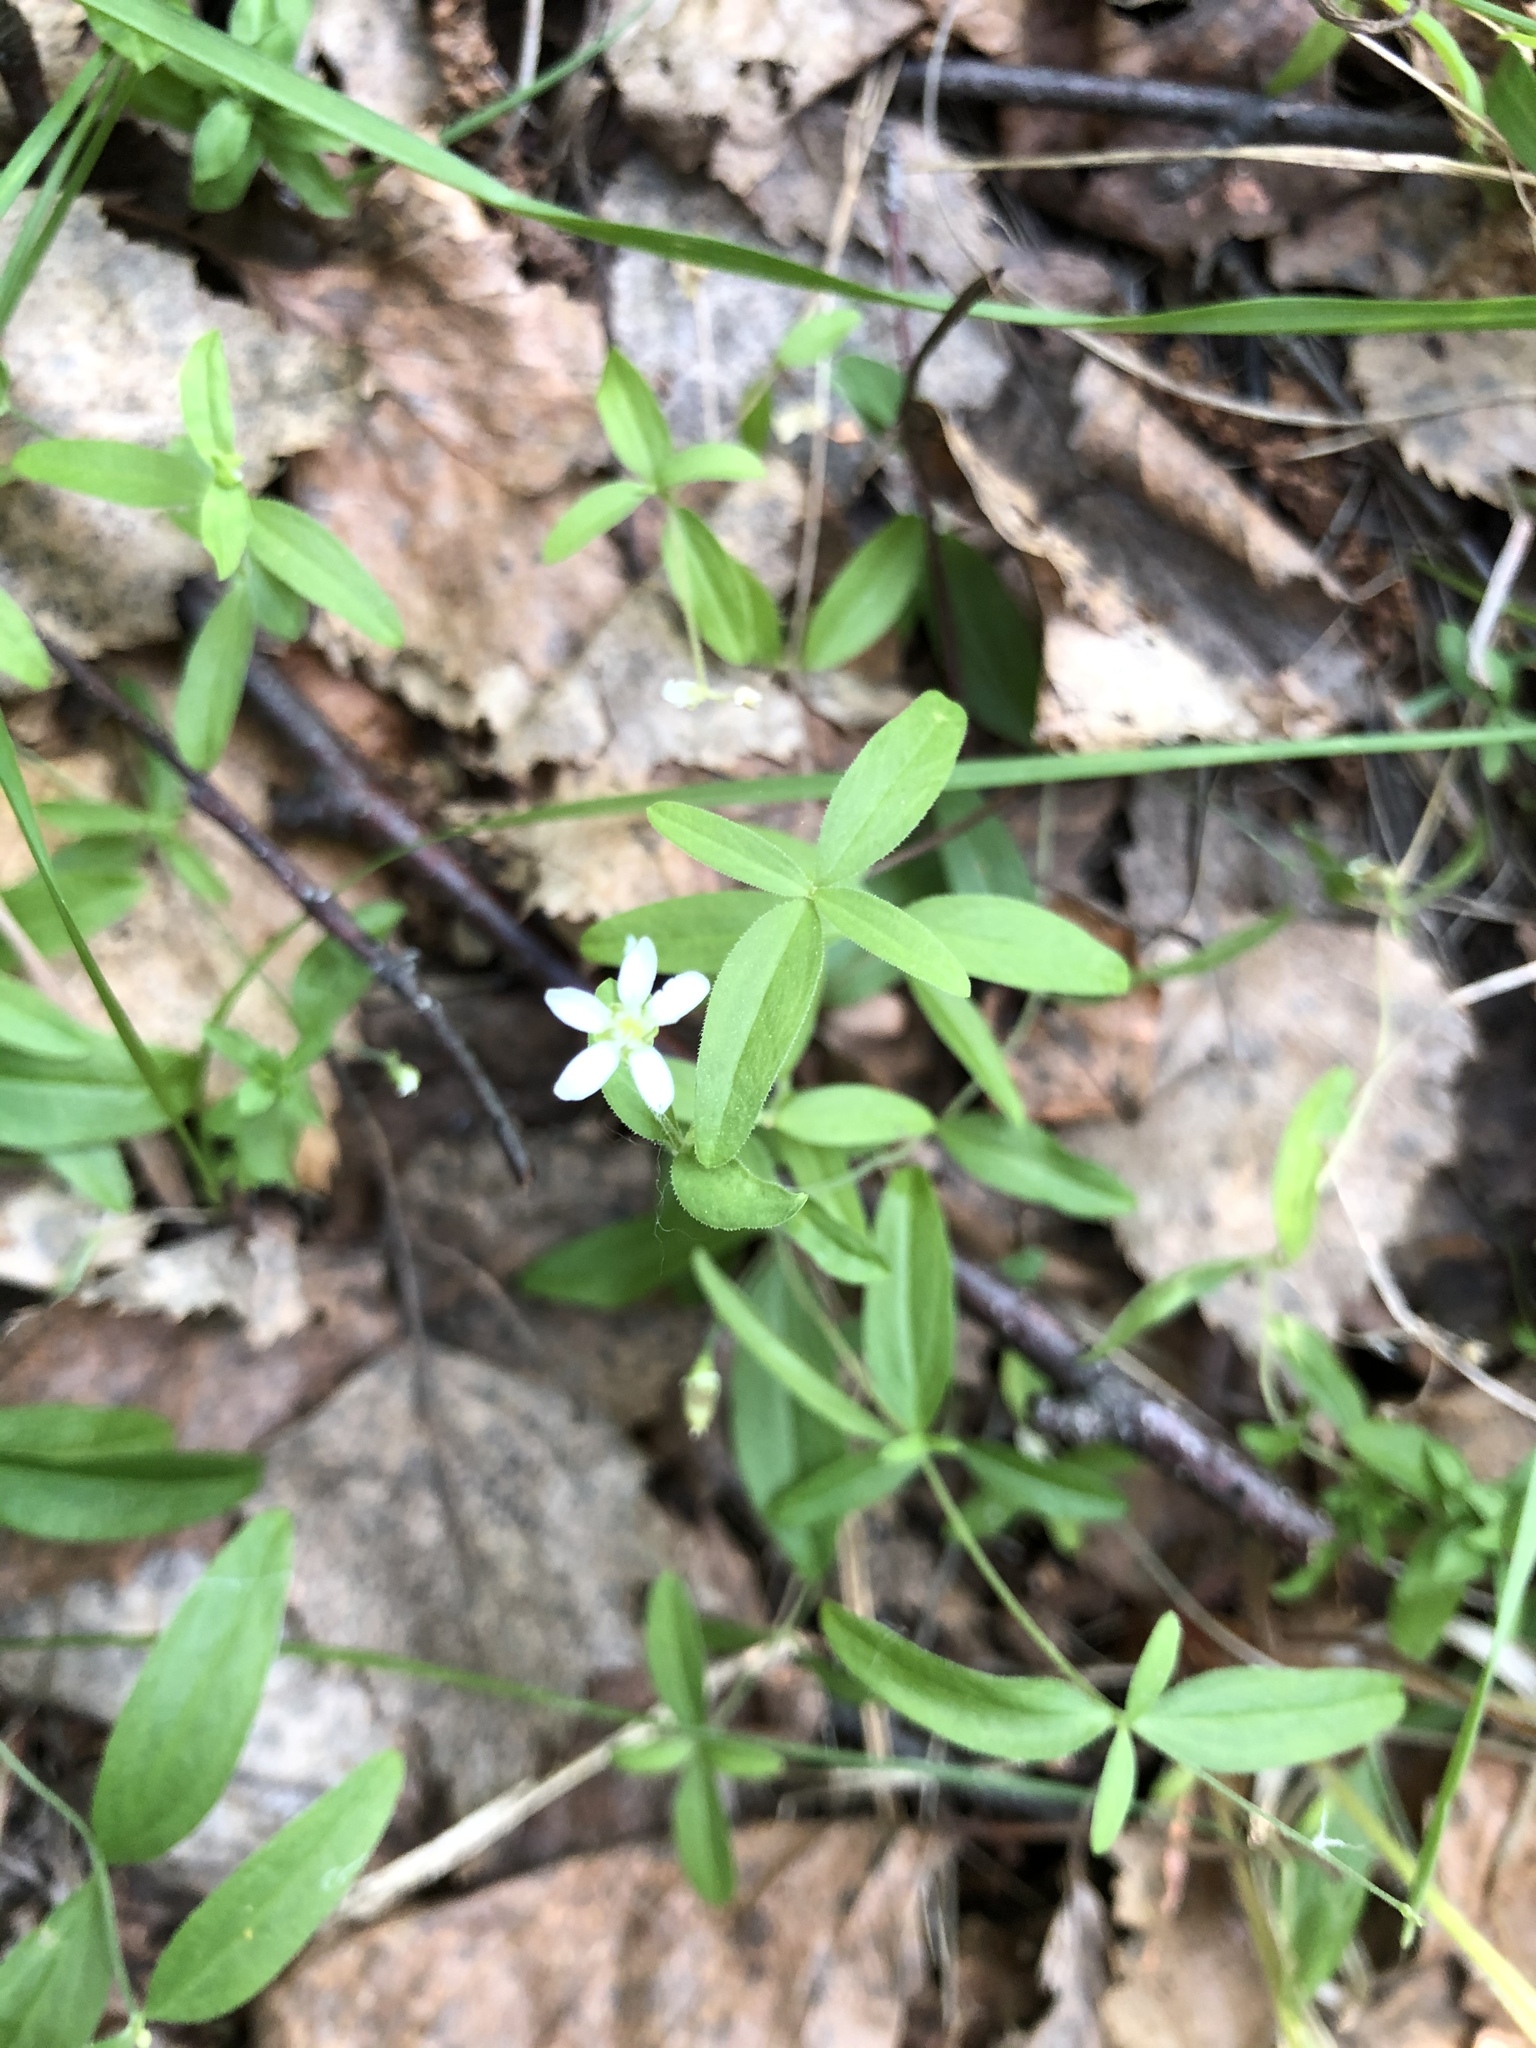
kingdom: Plantae
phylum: Tracheophyta
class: Magnoliopsida
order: Caryophyllales
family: Caryophyllaceae
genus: Moehringia
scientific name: Moehringia lateriflora
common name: Blunt-leaved sandwort
